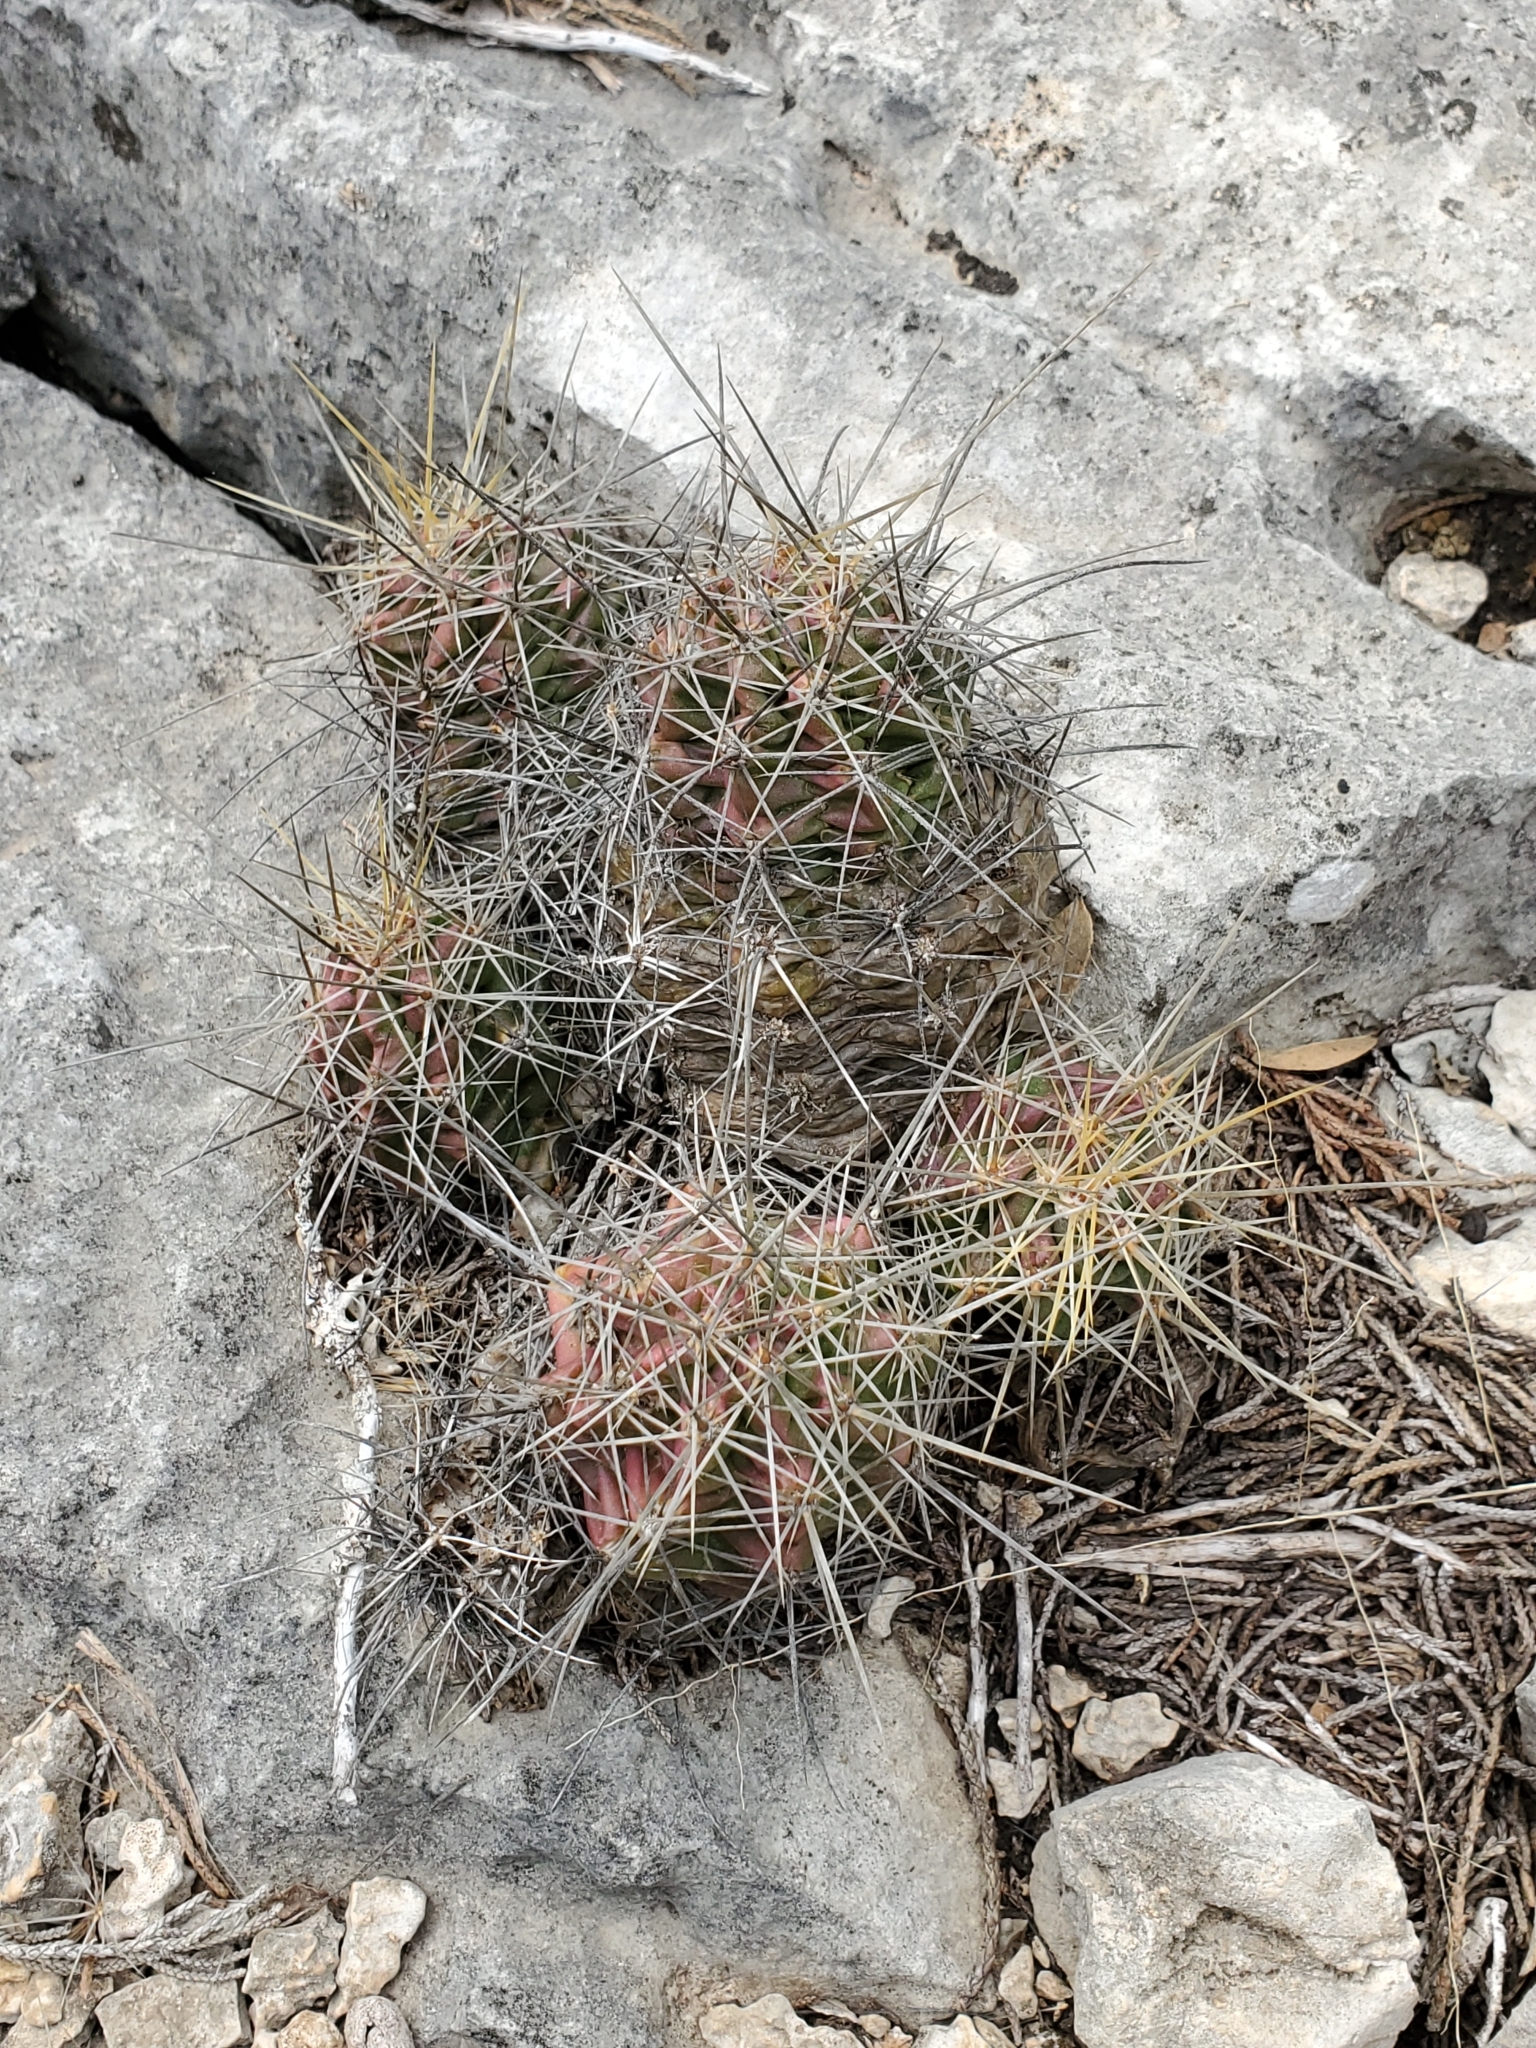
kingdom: Plantae
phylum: Tracheophyta
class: Magnoliopsida
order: Caryophyllales
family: Cactaceae
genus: Echinocereus
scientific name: Echinocereus enneacanthus
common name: Pitaya
